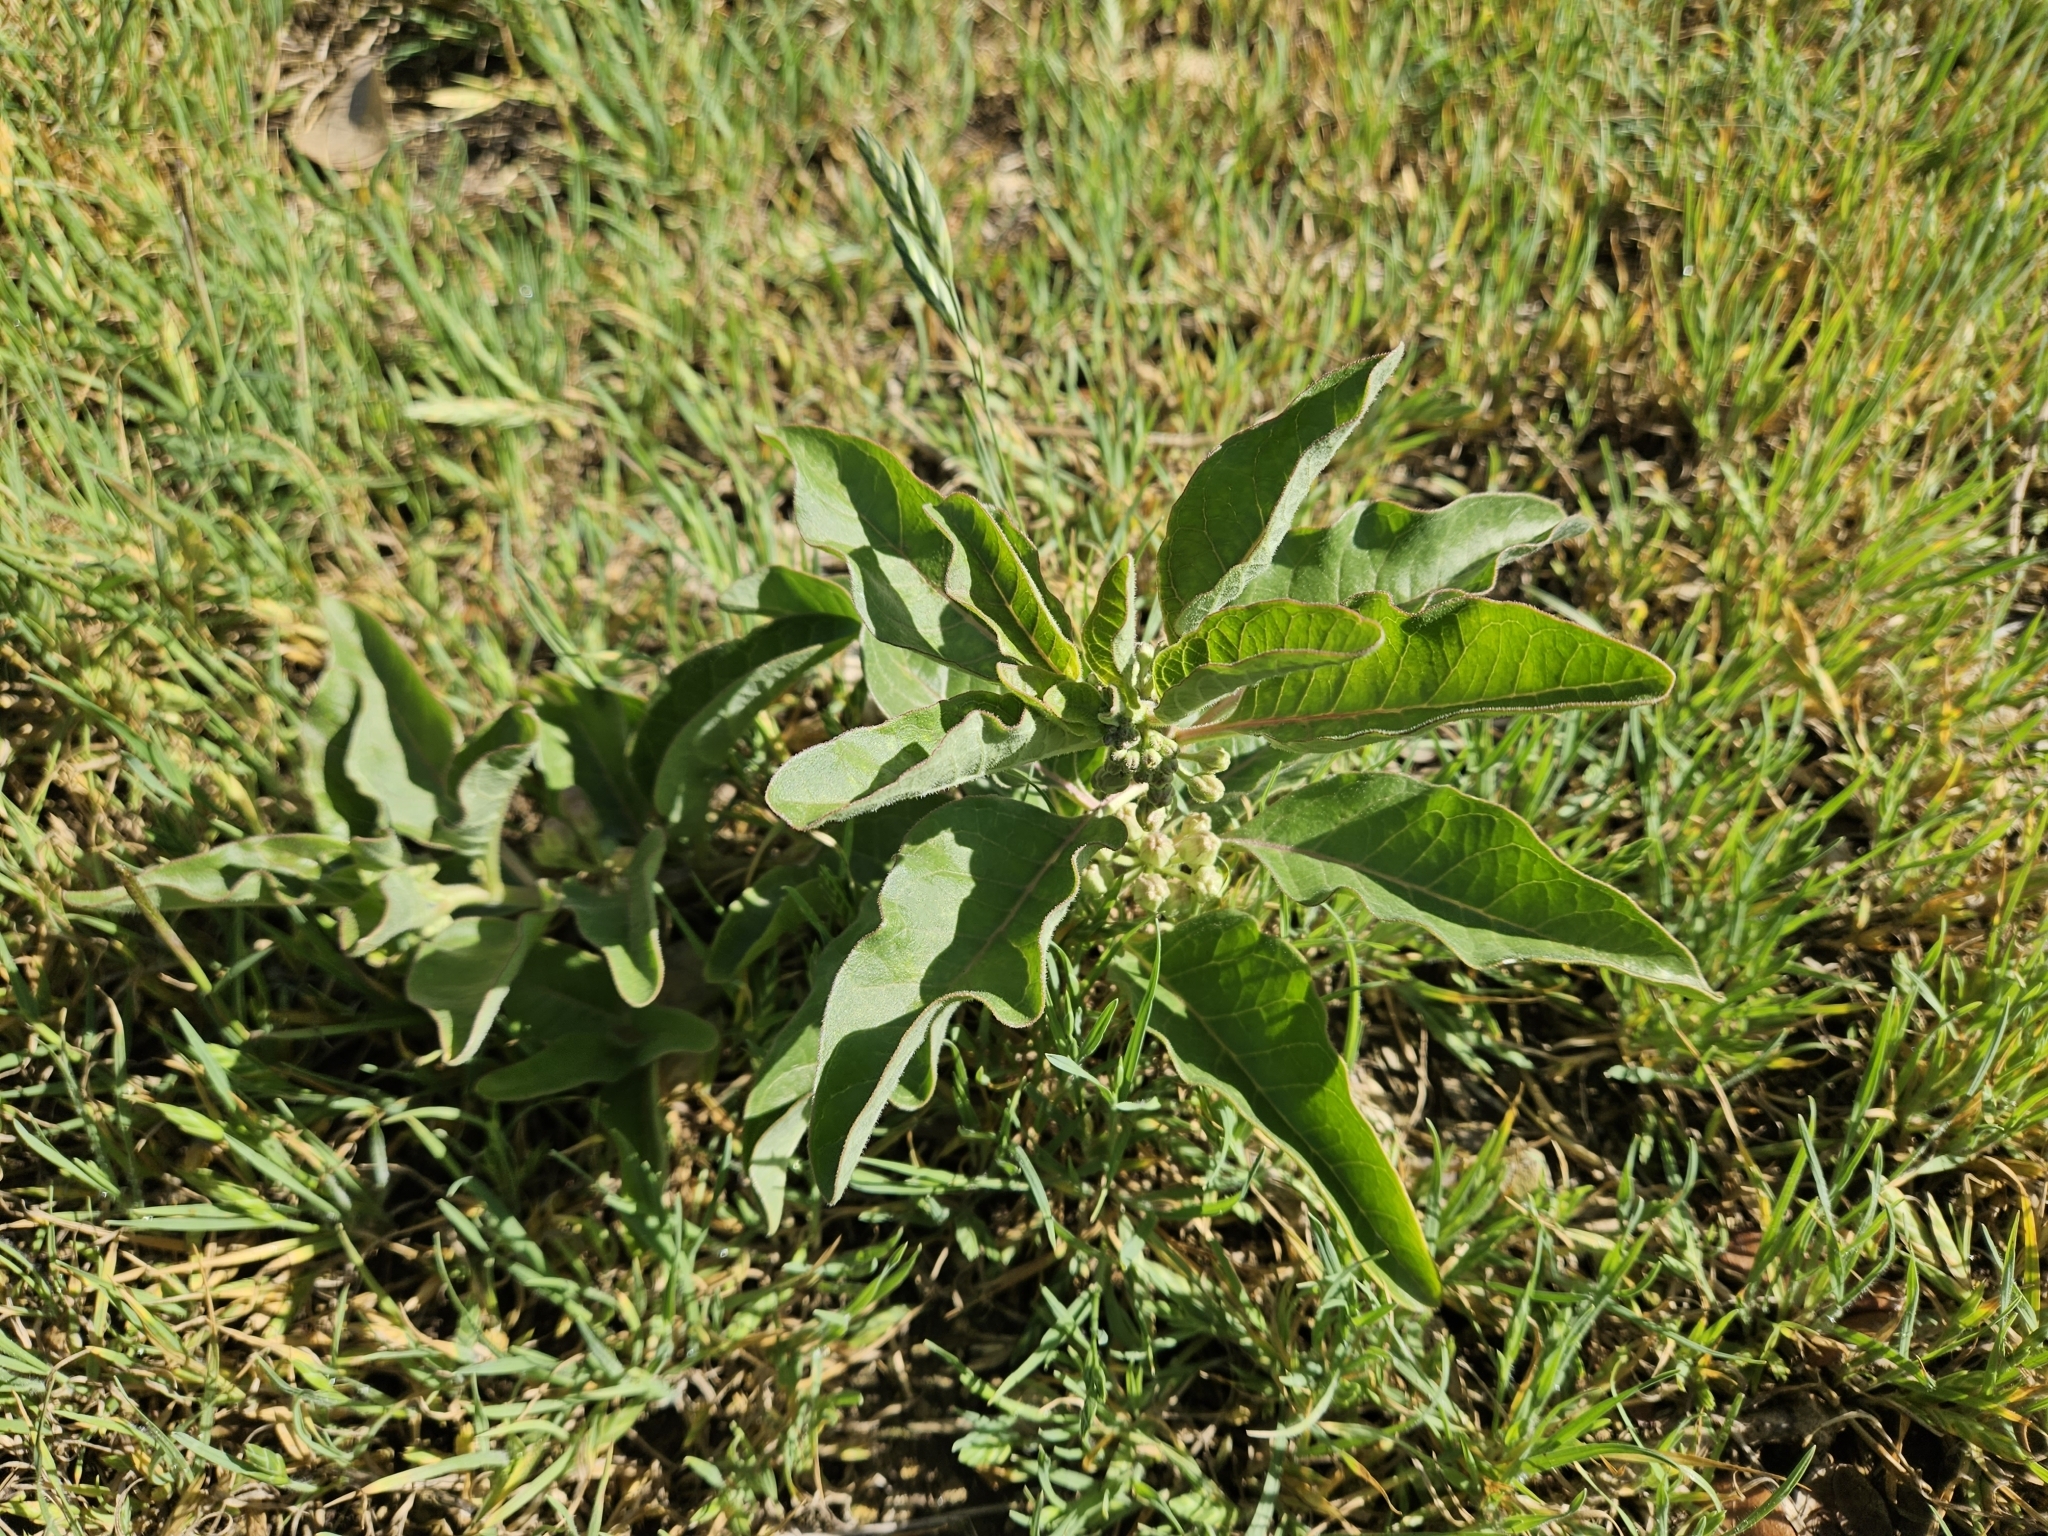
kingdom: Plantae
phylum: Tracheophyta
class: Magnoliopsida
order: Gentianales
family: Apocynaceae
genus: Asclepias
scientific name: Asclepias oenotheroides
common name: Zizotes milkweed
